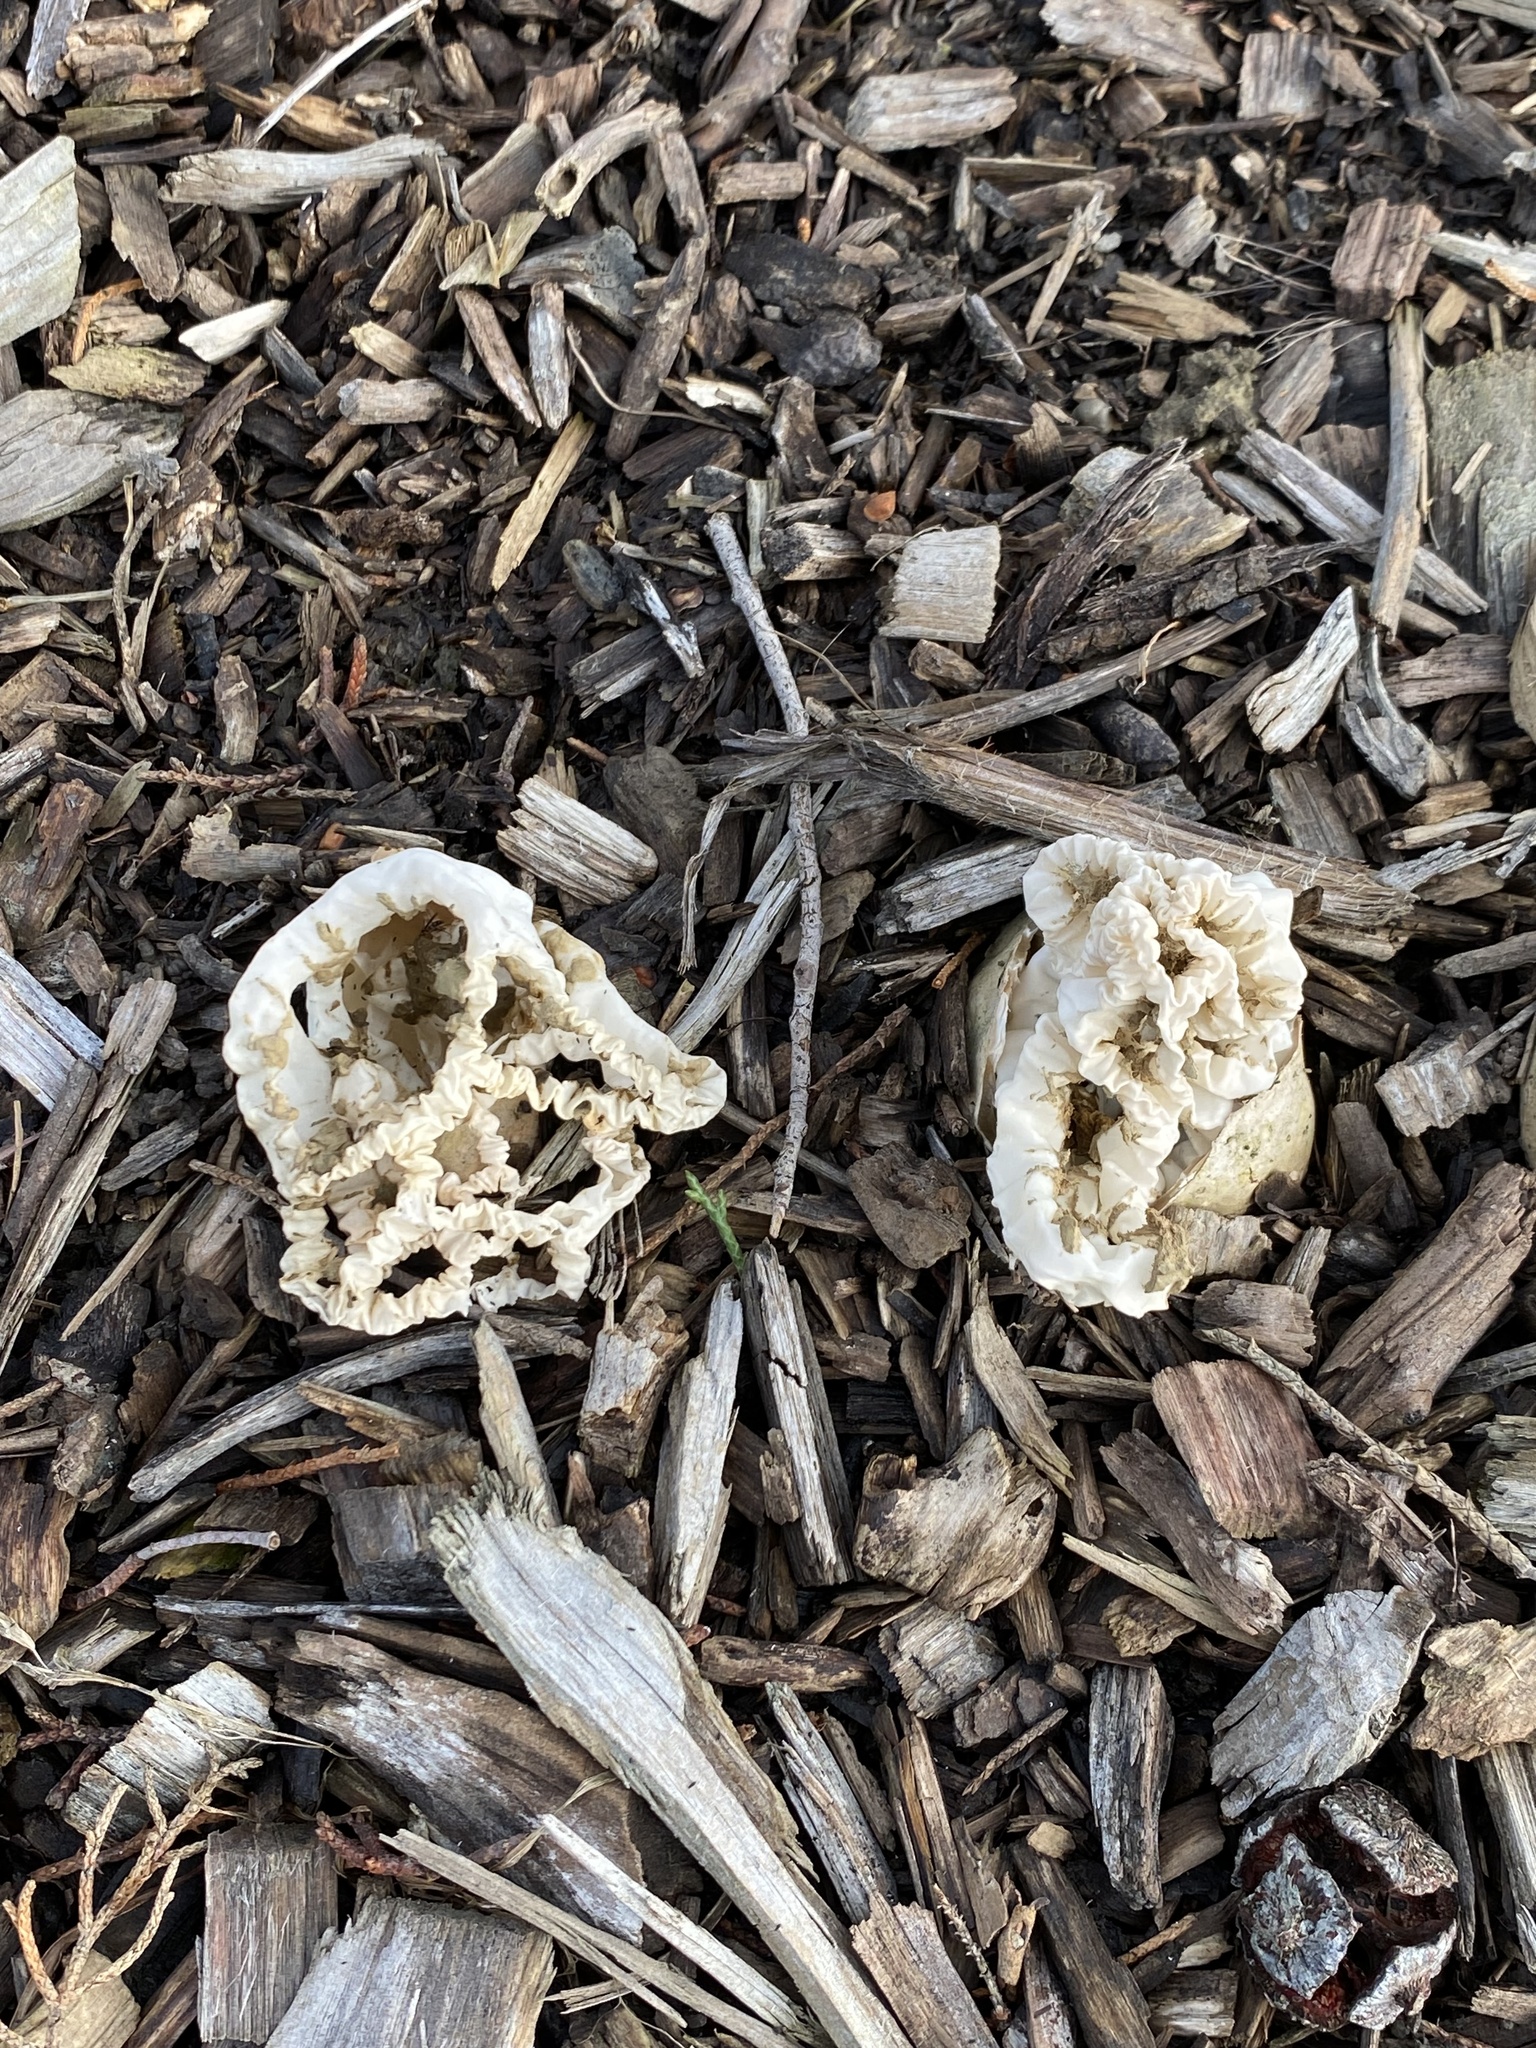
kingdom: Fungi
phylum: Basidiomycota
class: Agaricomycetes
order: Phallales
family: Phallaceae
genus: Ileodictyon
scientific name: Ileodictyon cibarium
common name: Basket fungus
